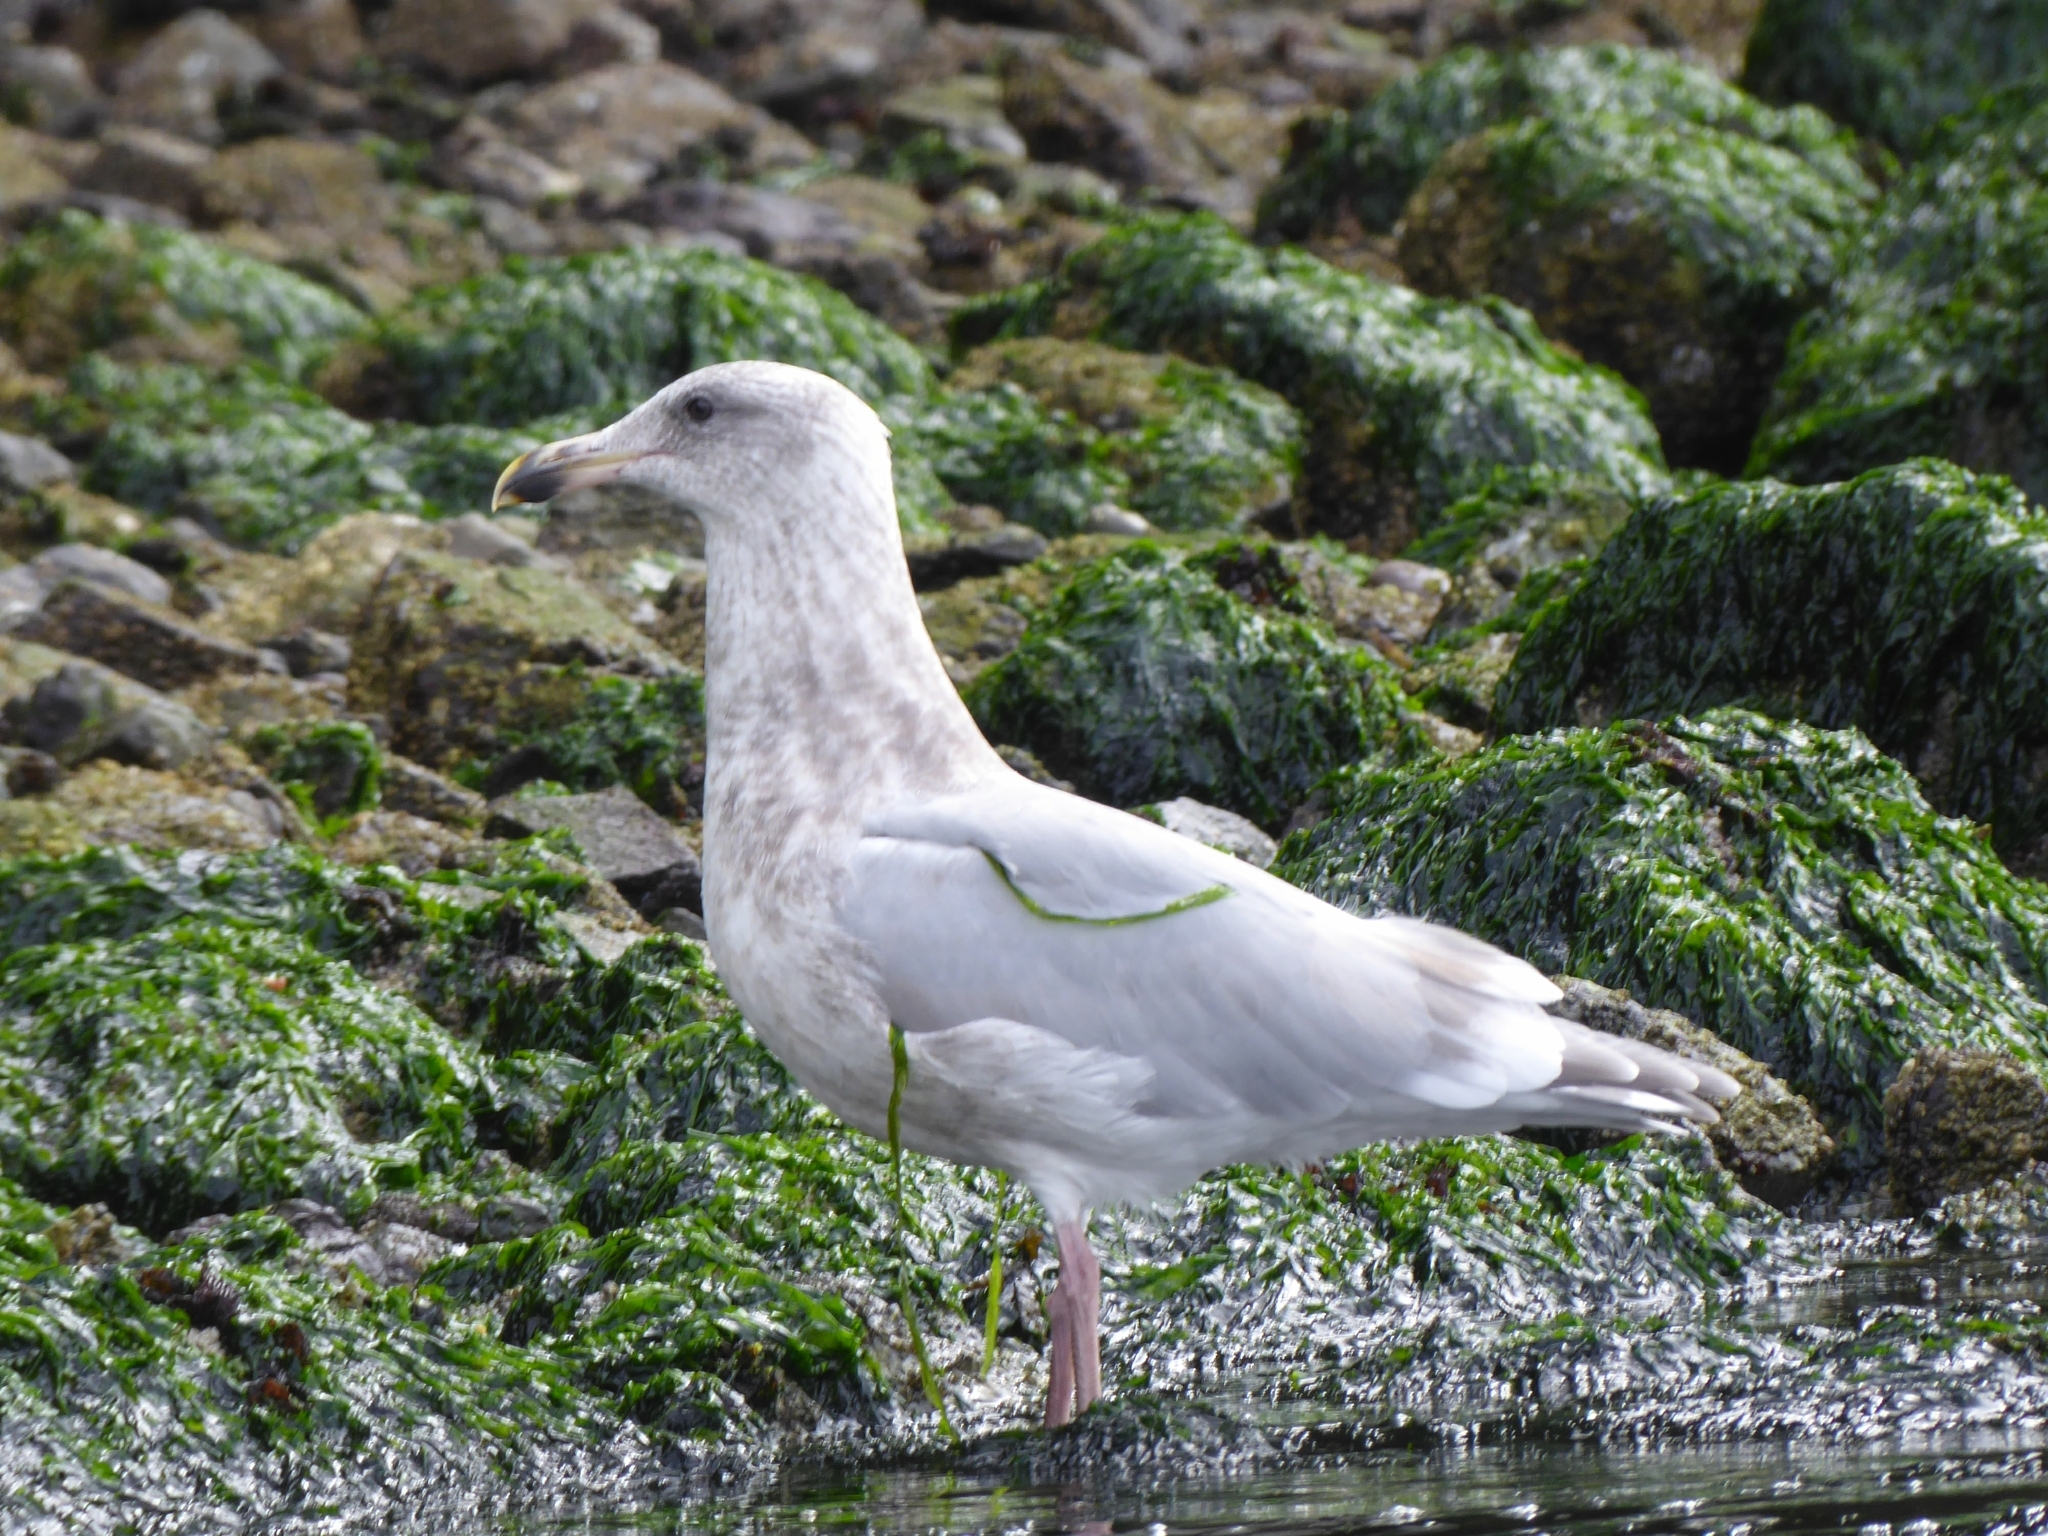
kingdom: Animalia
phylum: Chordata
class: Aves
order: Charadriiformes
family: Laridae
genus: Larus
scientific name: Larus glaucescens
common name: Glaucous-winged gull
